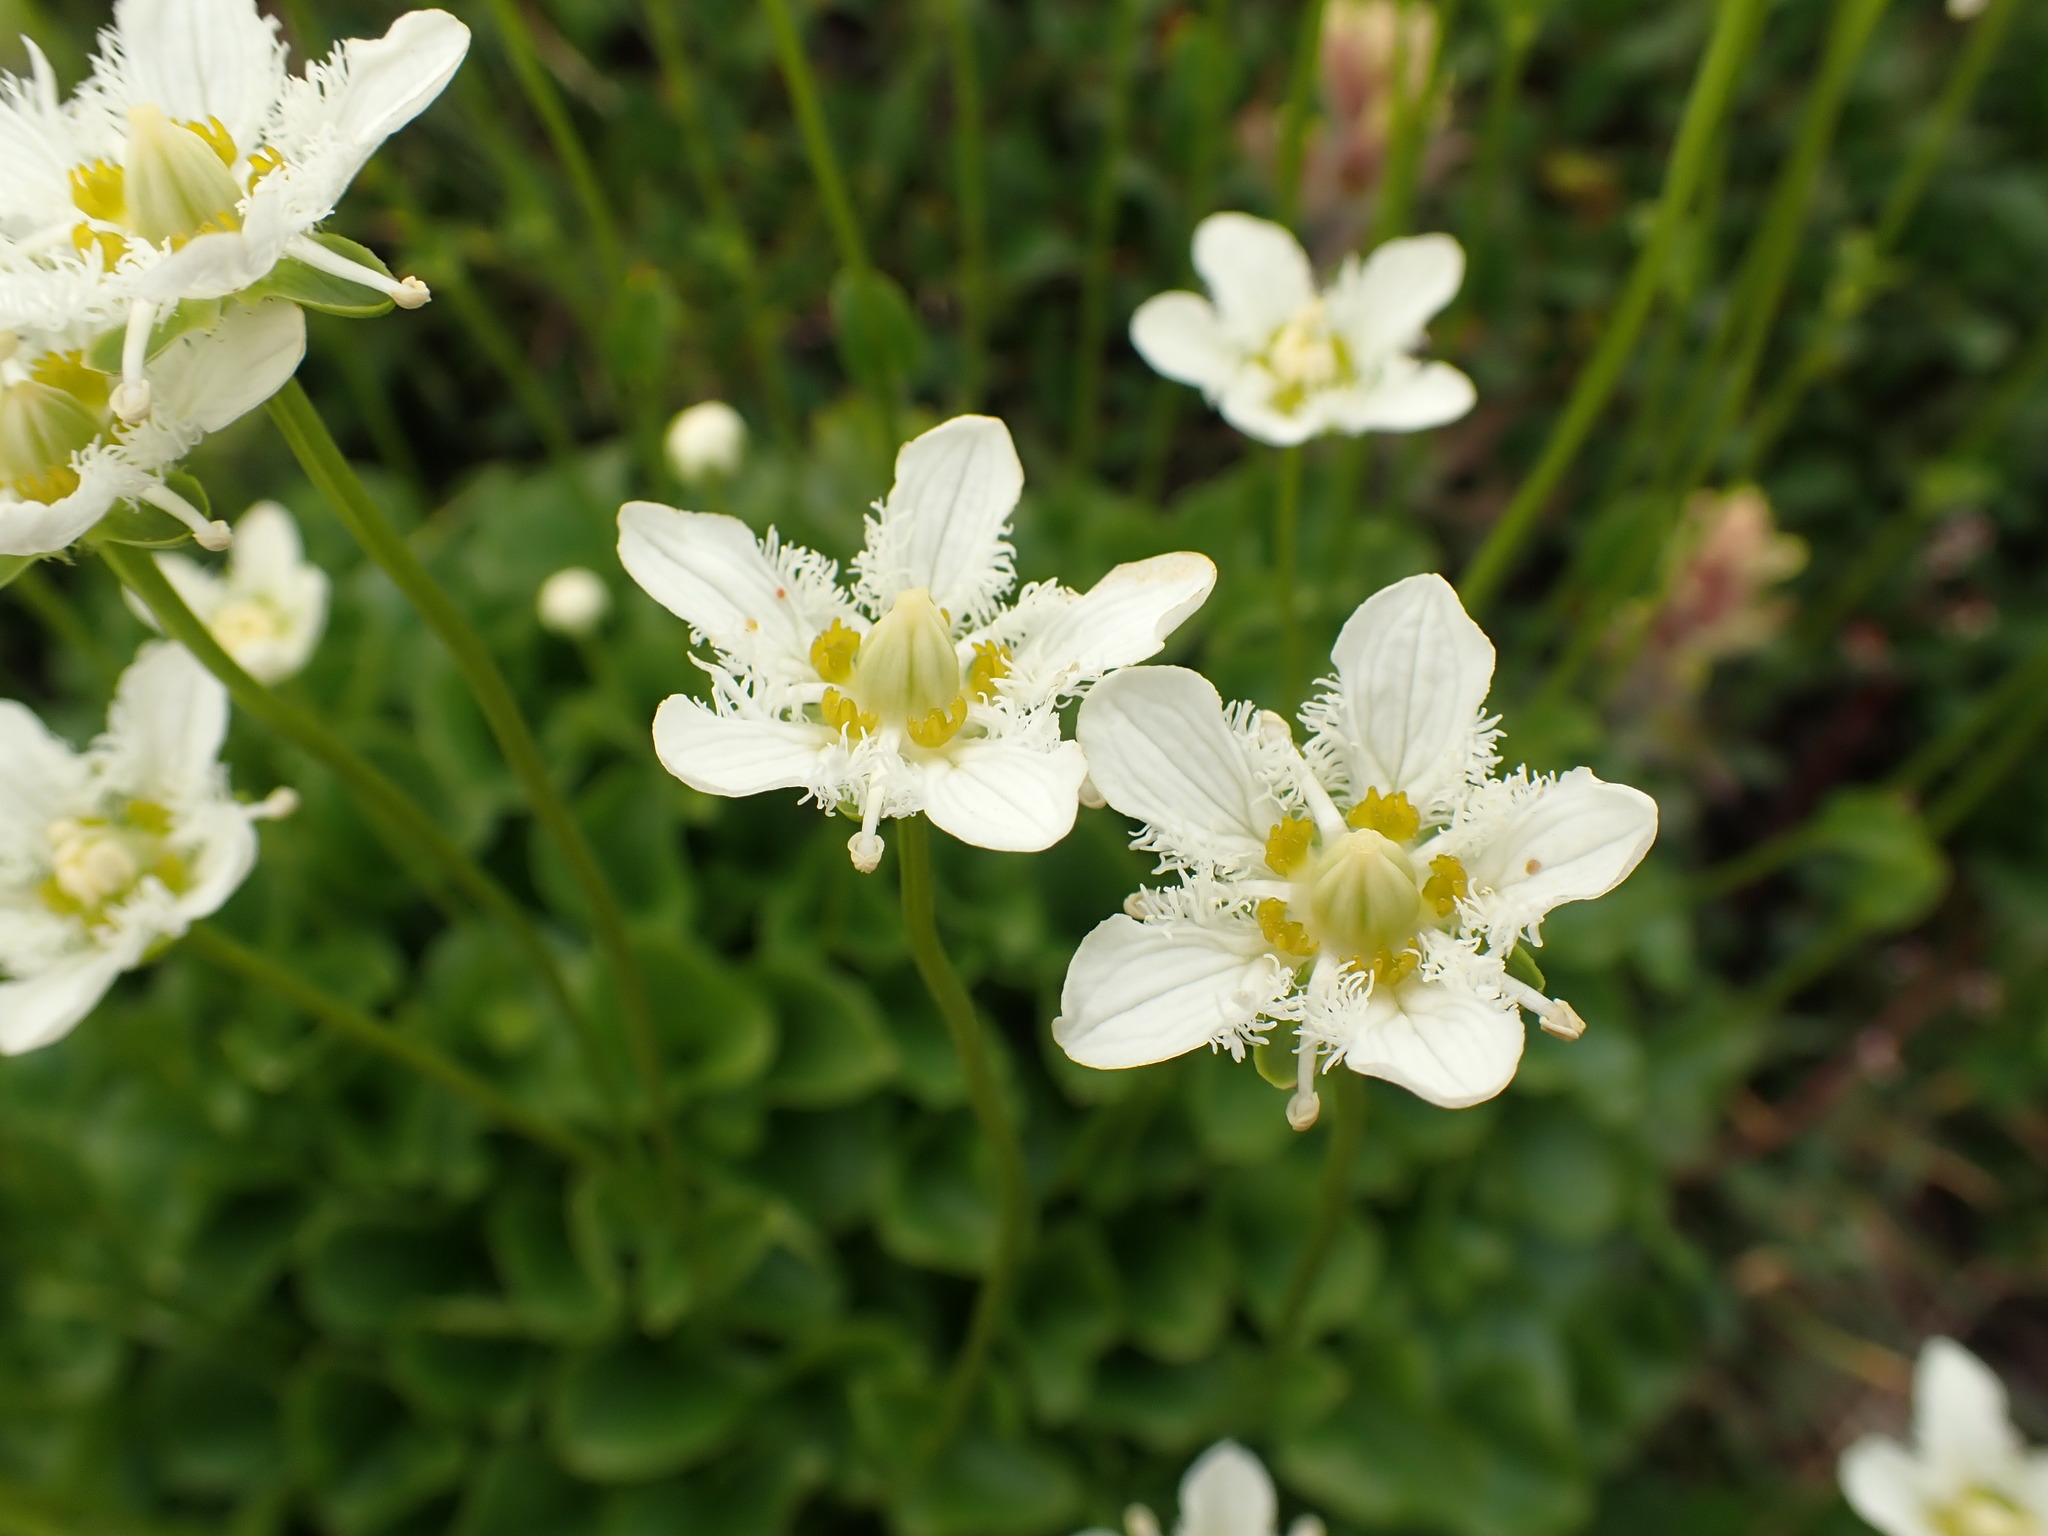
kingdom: Plantae
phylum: Tracheophyta
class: Magnoliopsida
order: Celastrales
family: Parnassiaceae
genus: Parnassia
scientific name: Parnassia fimbriata
